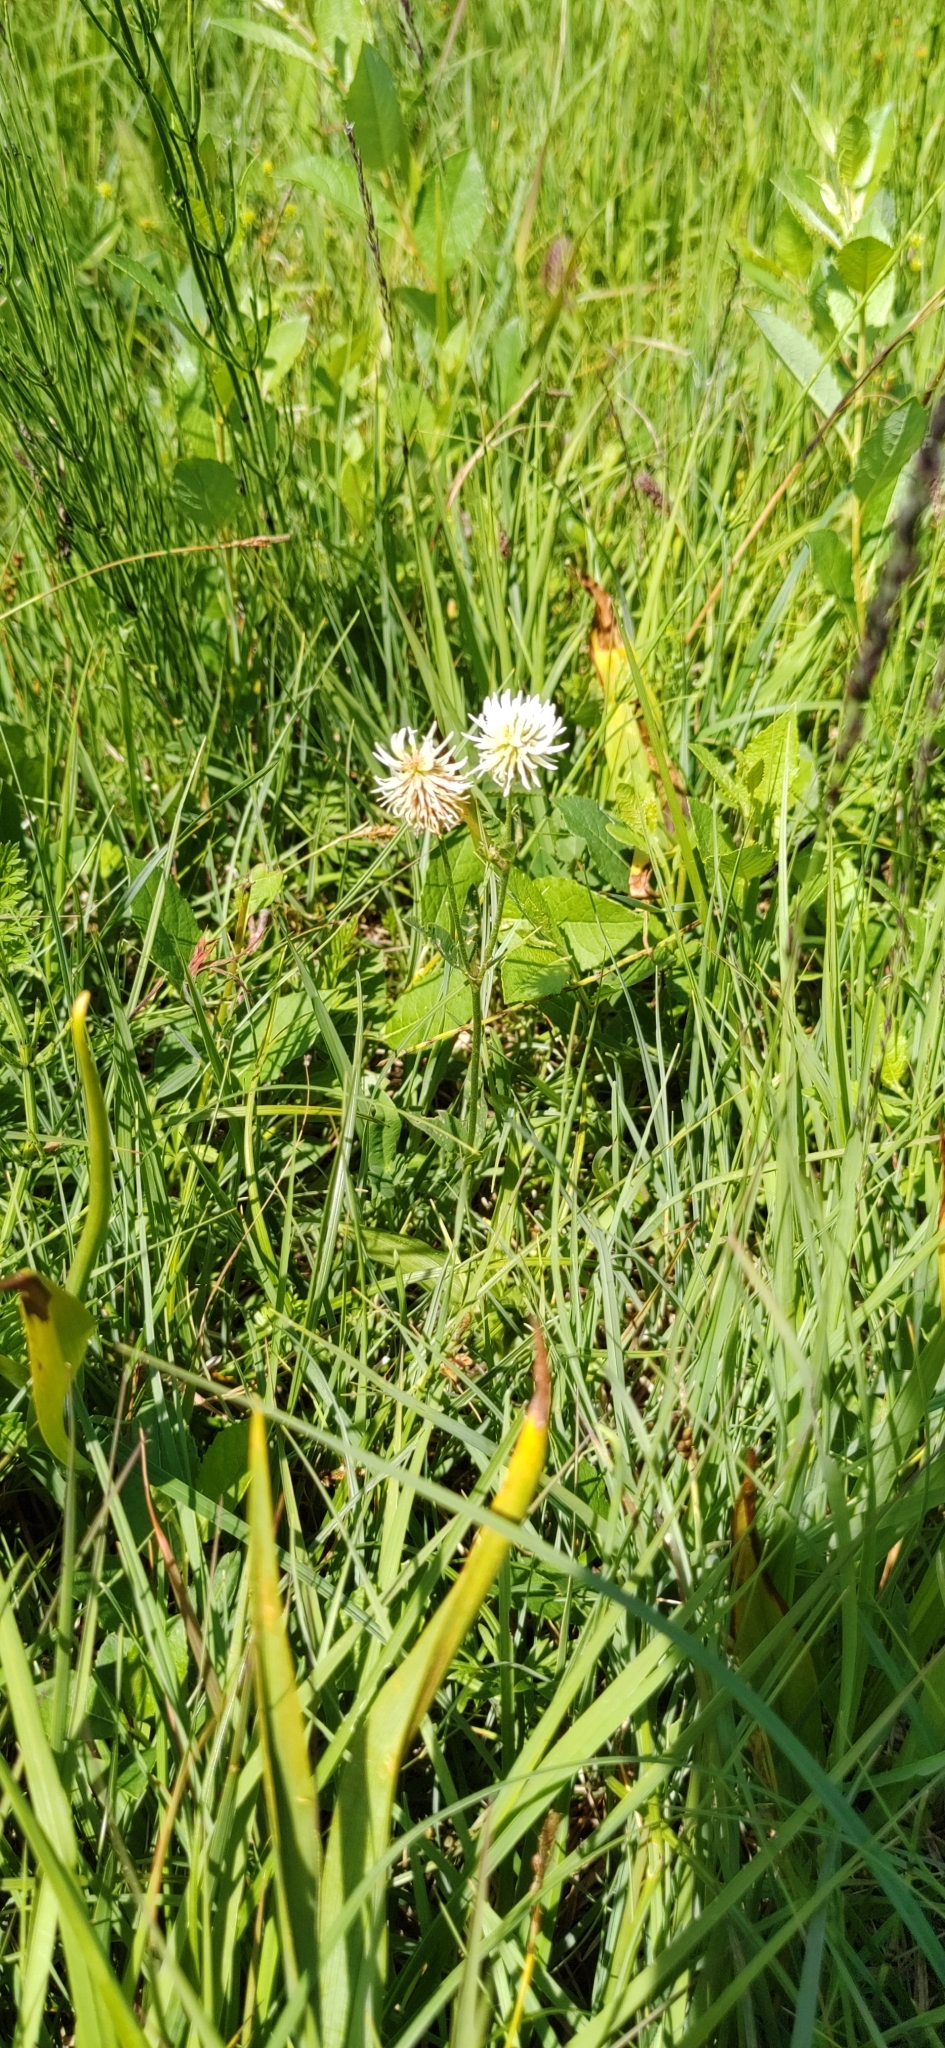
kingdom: Plantae
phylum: Tracheophyta
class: Magnoliopsida
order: Fabales
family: Fabaceae
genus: Trifolium
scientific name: Trifolium montanum
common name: Mountain clover
